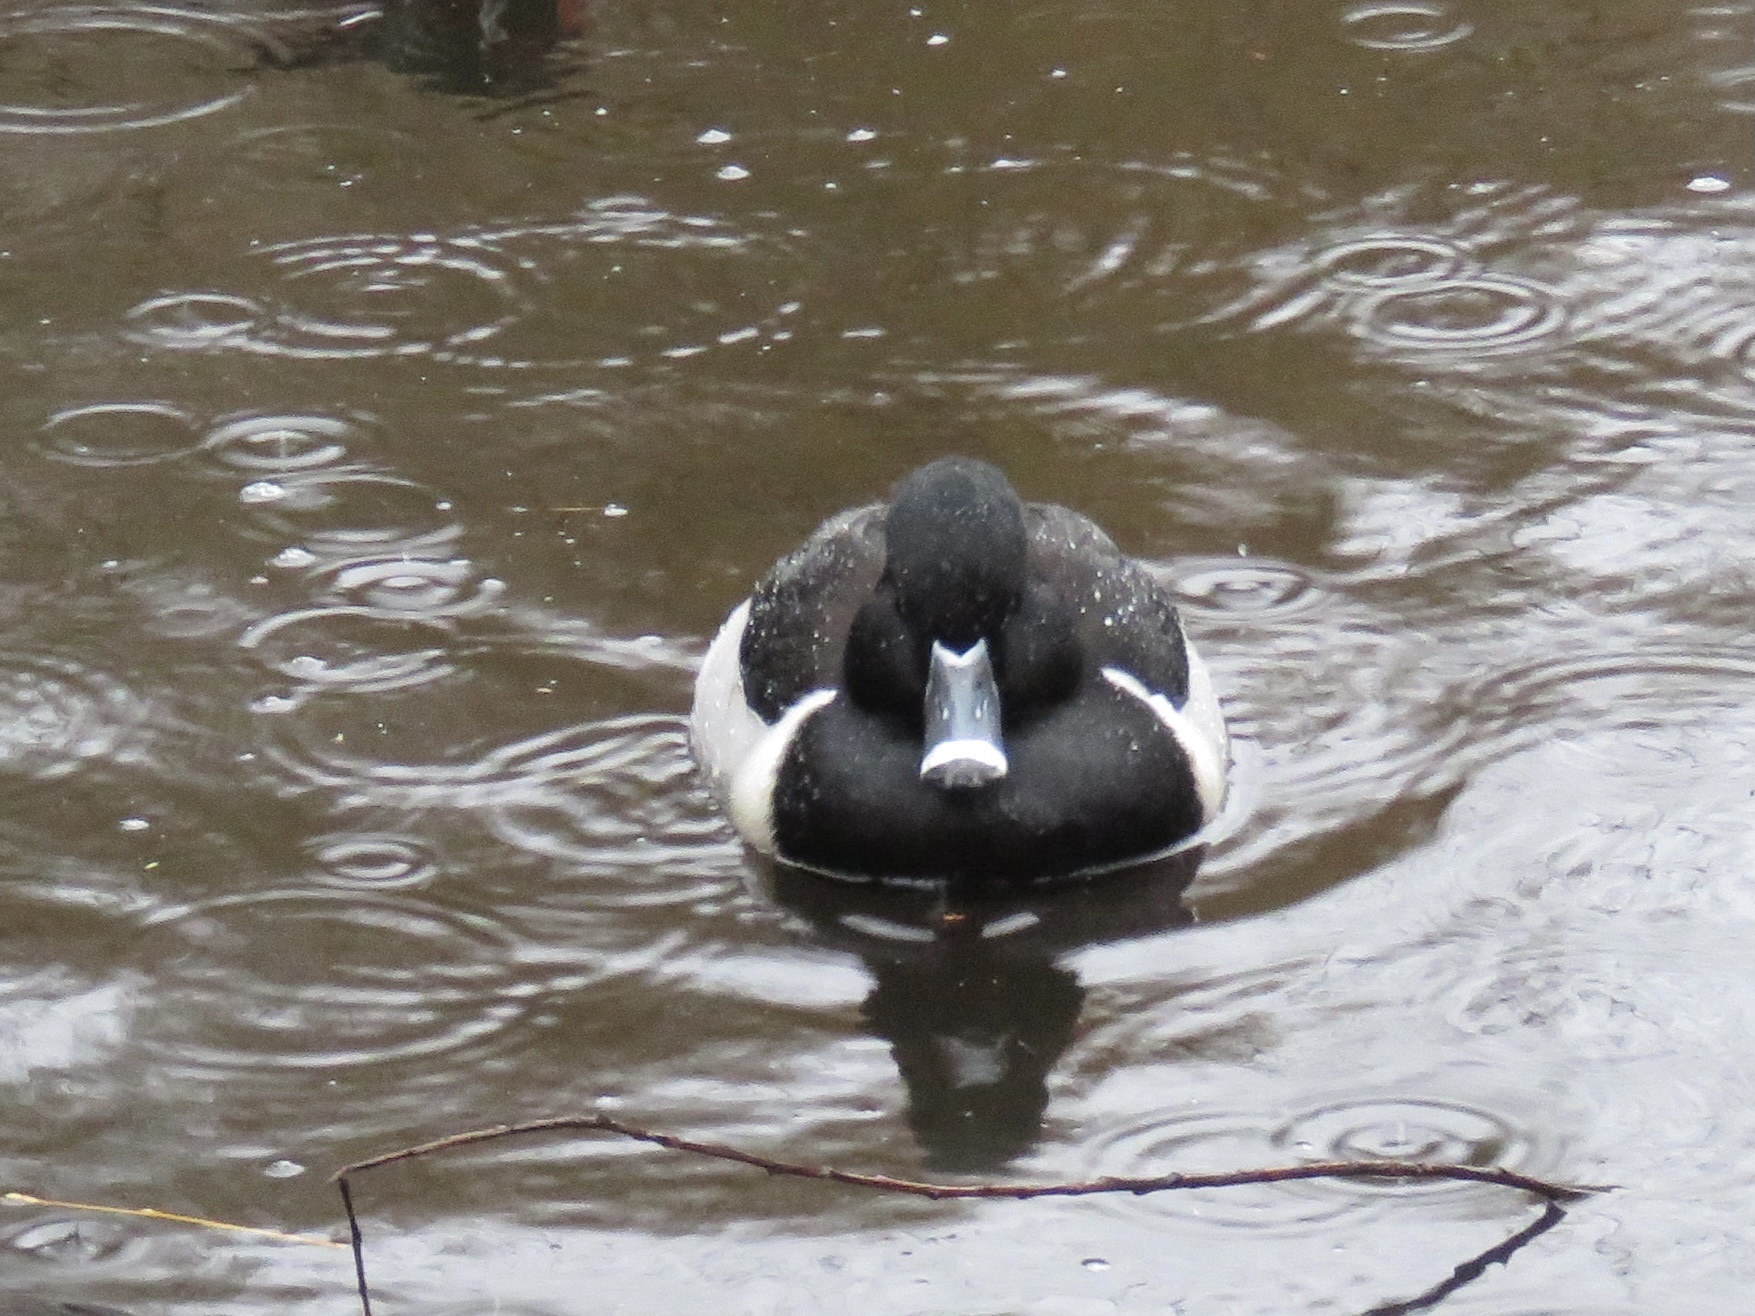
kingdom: Animalia
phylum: Chordata
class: Aves
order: Anseriformes
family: Anatidae
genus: Aythya
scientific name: Aythya collaris
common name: Ring-necked duck
